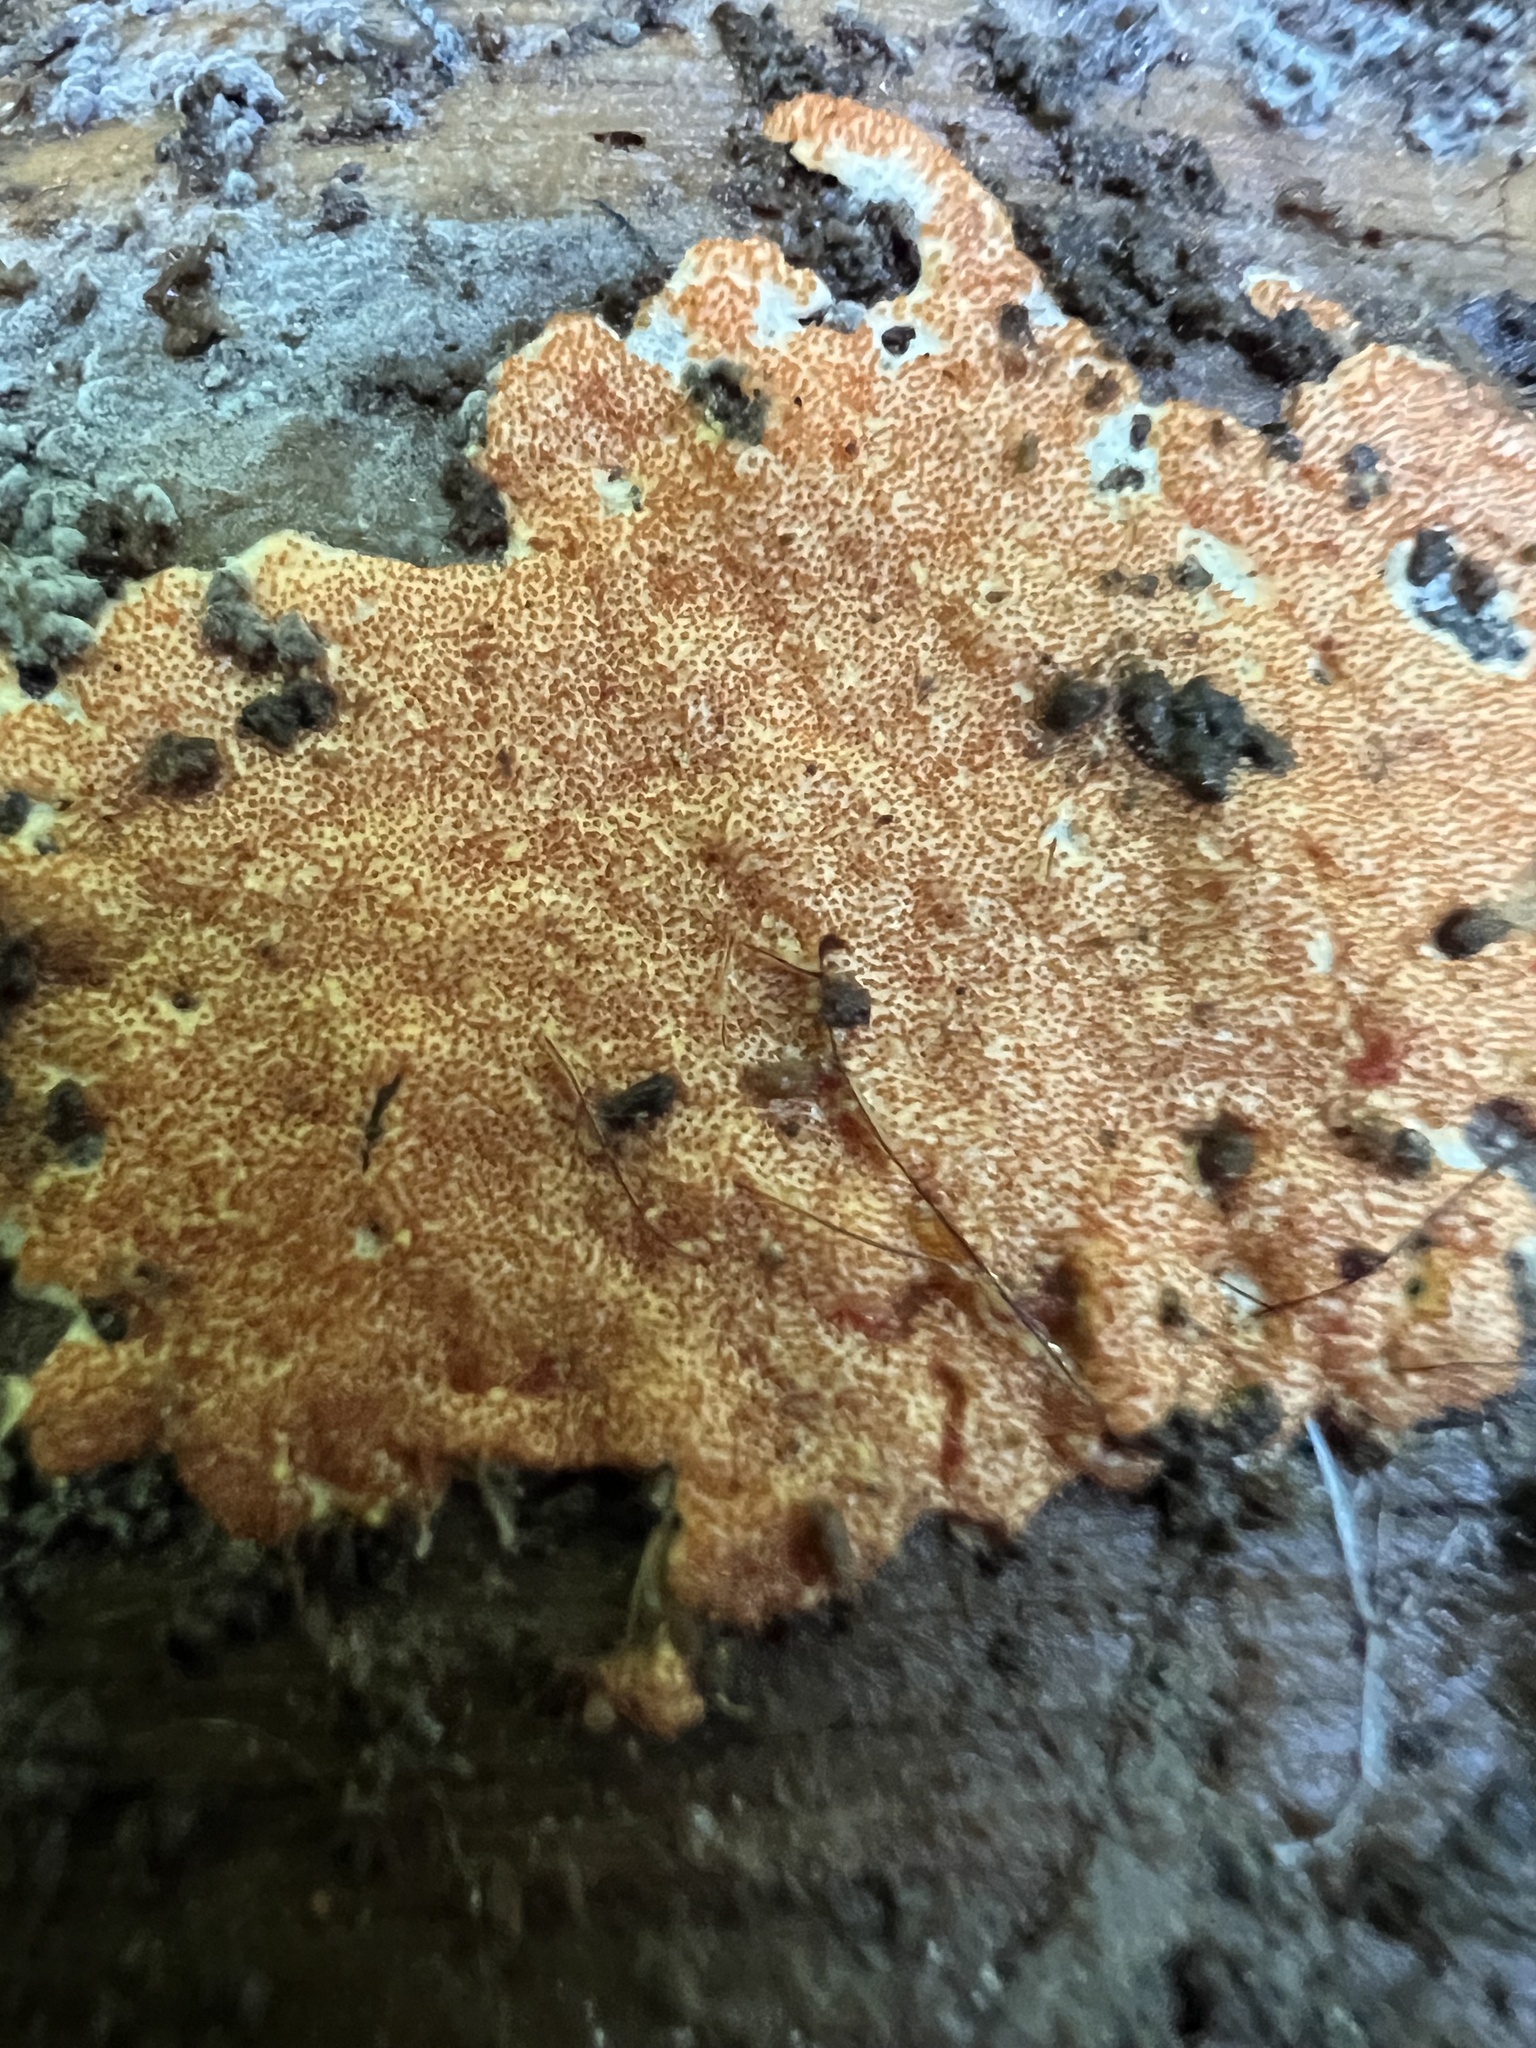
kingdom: Fungi
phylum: Ascomycota
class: Sordariomycetes
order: Hypocreales
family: Hypocreaceae
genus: Hypomyces
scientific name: Hypomyces armeniacus
